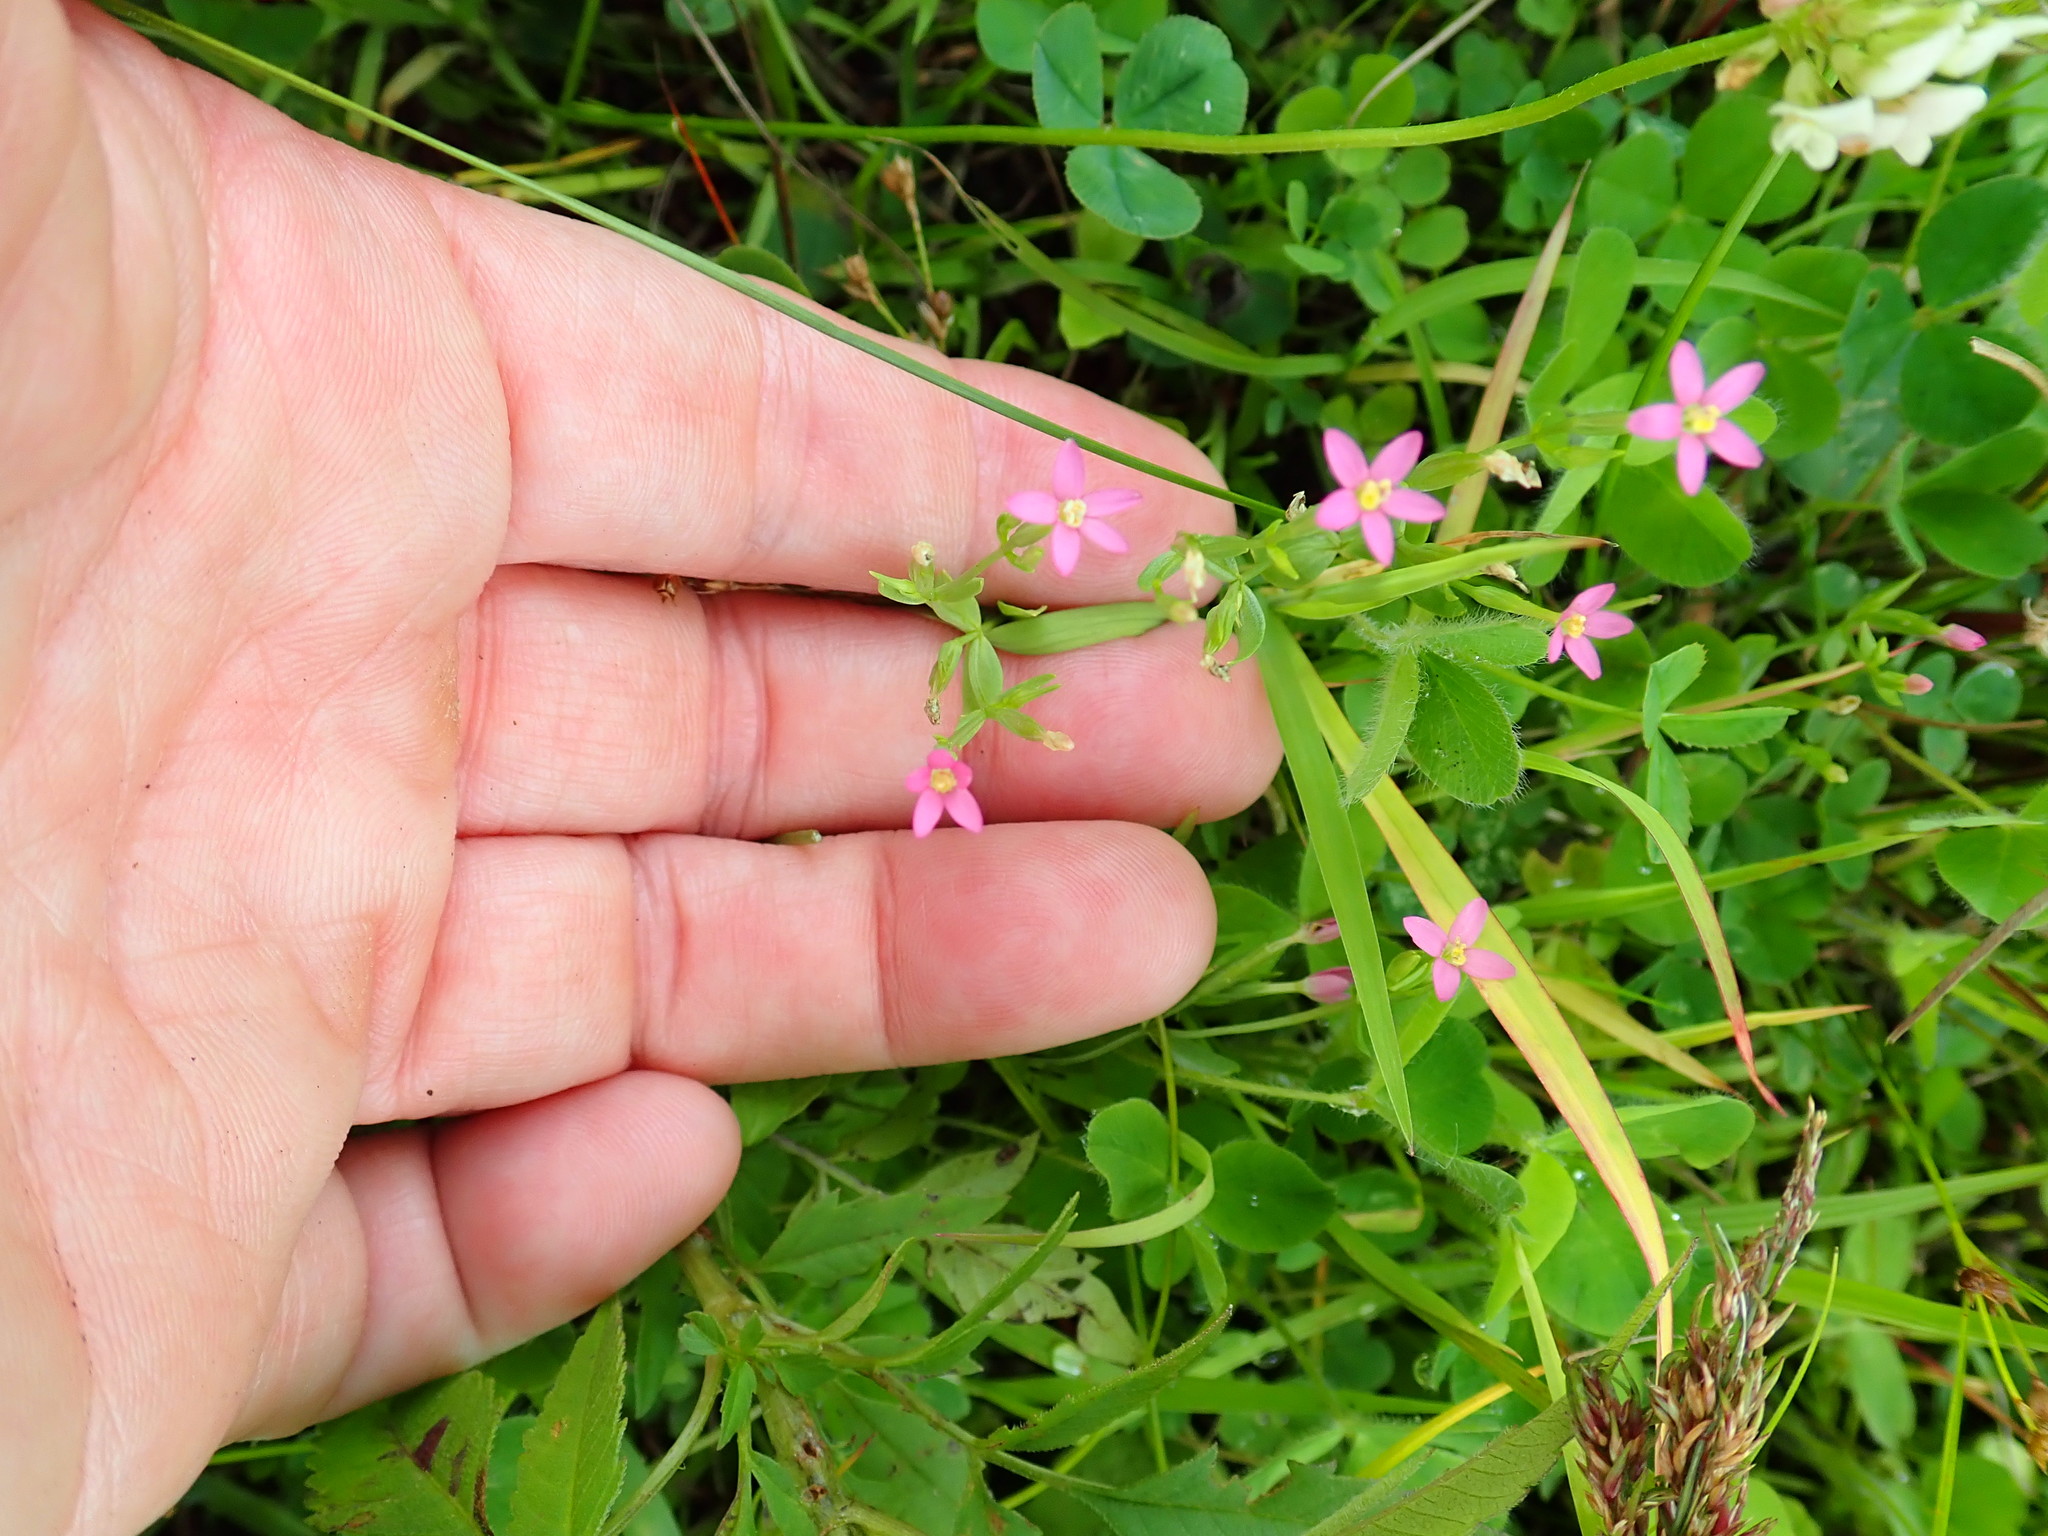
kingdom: Plantae
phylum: Tracheophyta
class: Magnoliopsida
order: Gentianales
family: Gentianaceae
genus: Centaurium
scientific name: Centaurium erythraea
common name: Common centaury
